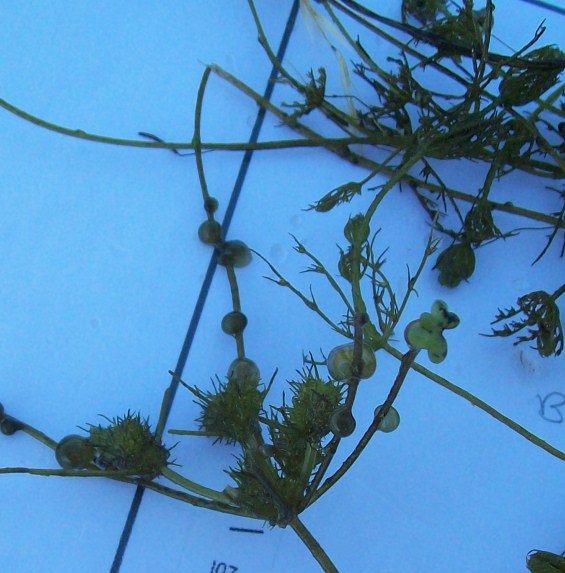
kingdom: Plantae
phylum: Charophyta
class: Charophyceae
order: Charales
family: Characeae
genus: Tolypella
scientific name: Tolypella prolifera
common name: Great tassel stonewort
